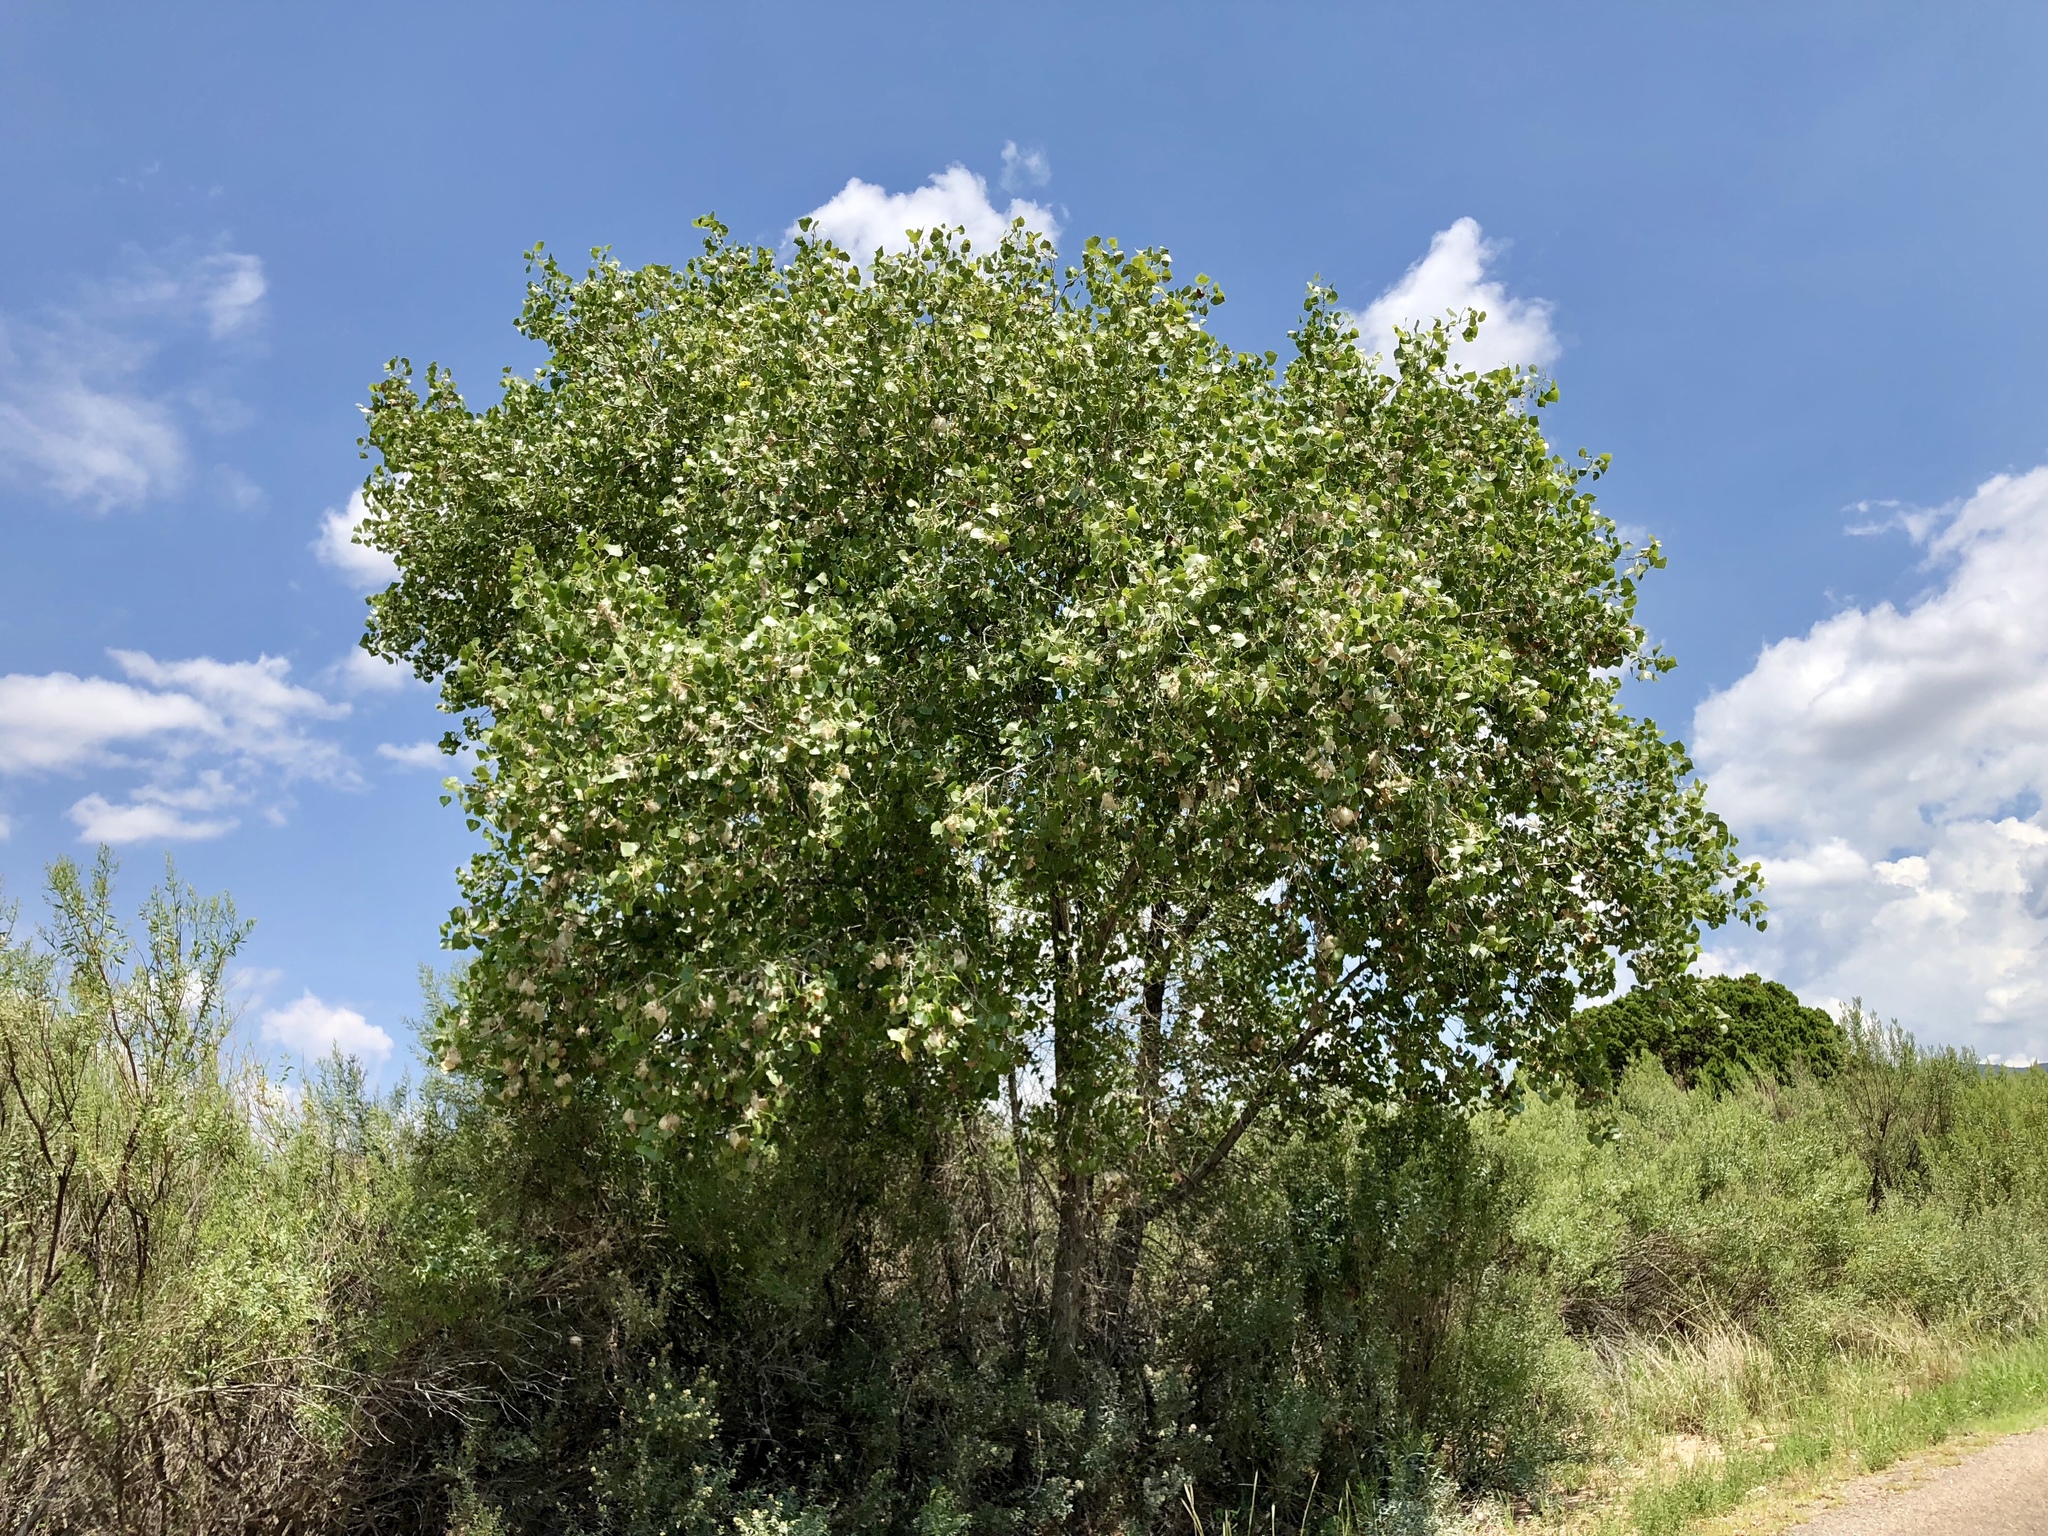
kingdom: Plantae
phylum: Tracheophyta
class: Magnoliopsida
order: Malpighiales
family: Salicaceae
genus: Populus
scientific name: Populus fremontii
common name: Fremont's cottonwood
